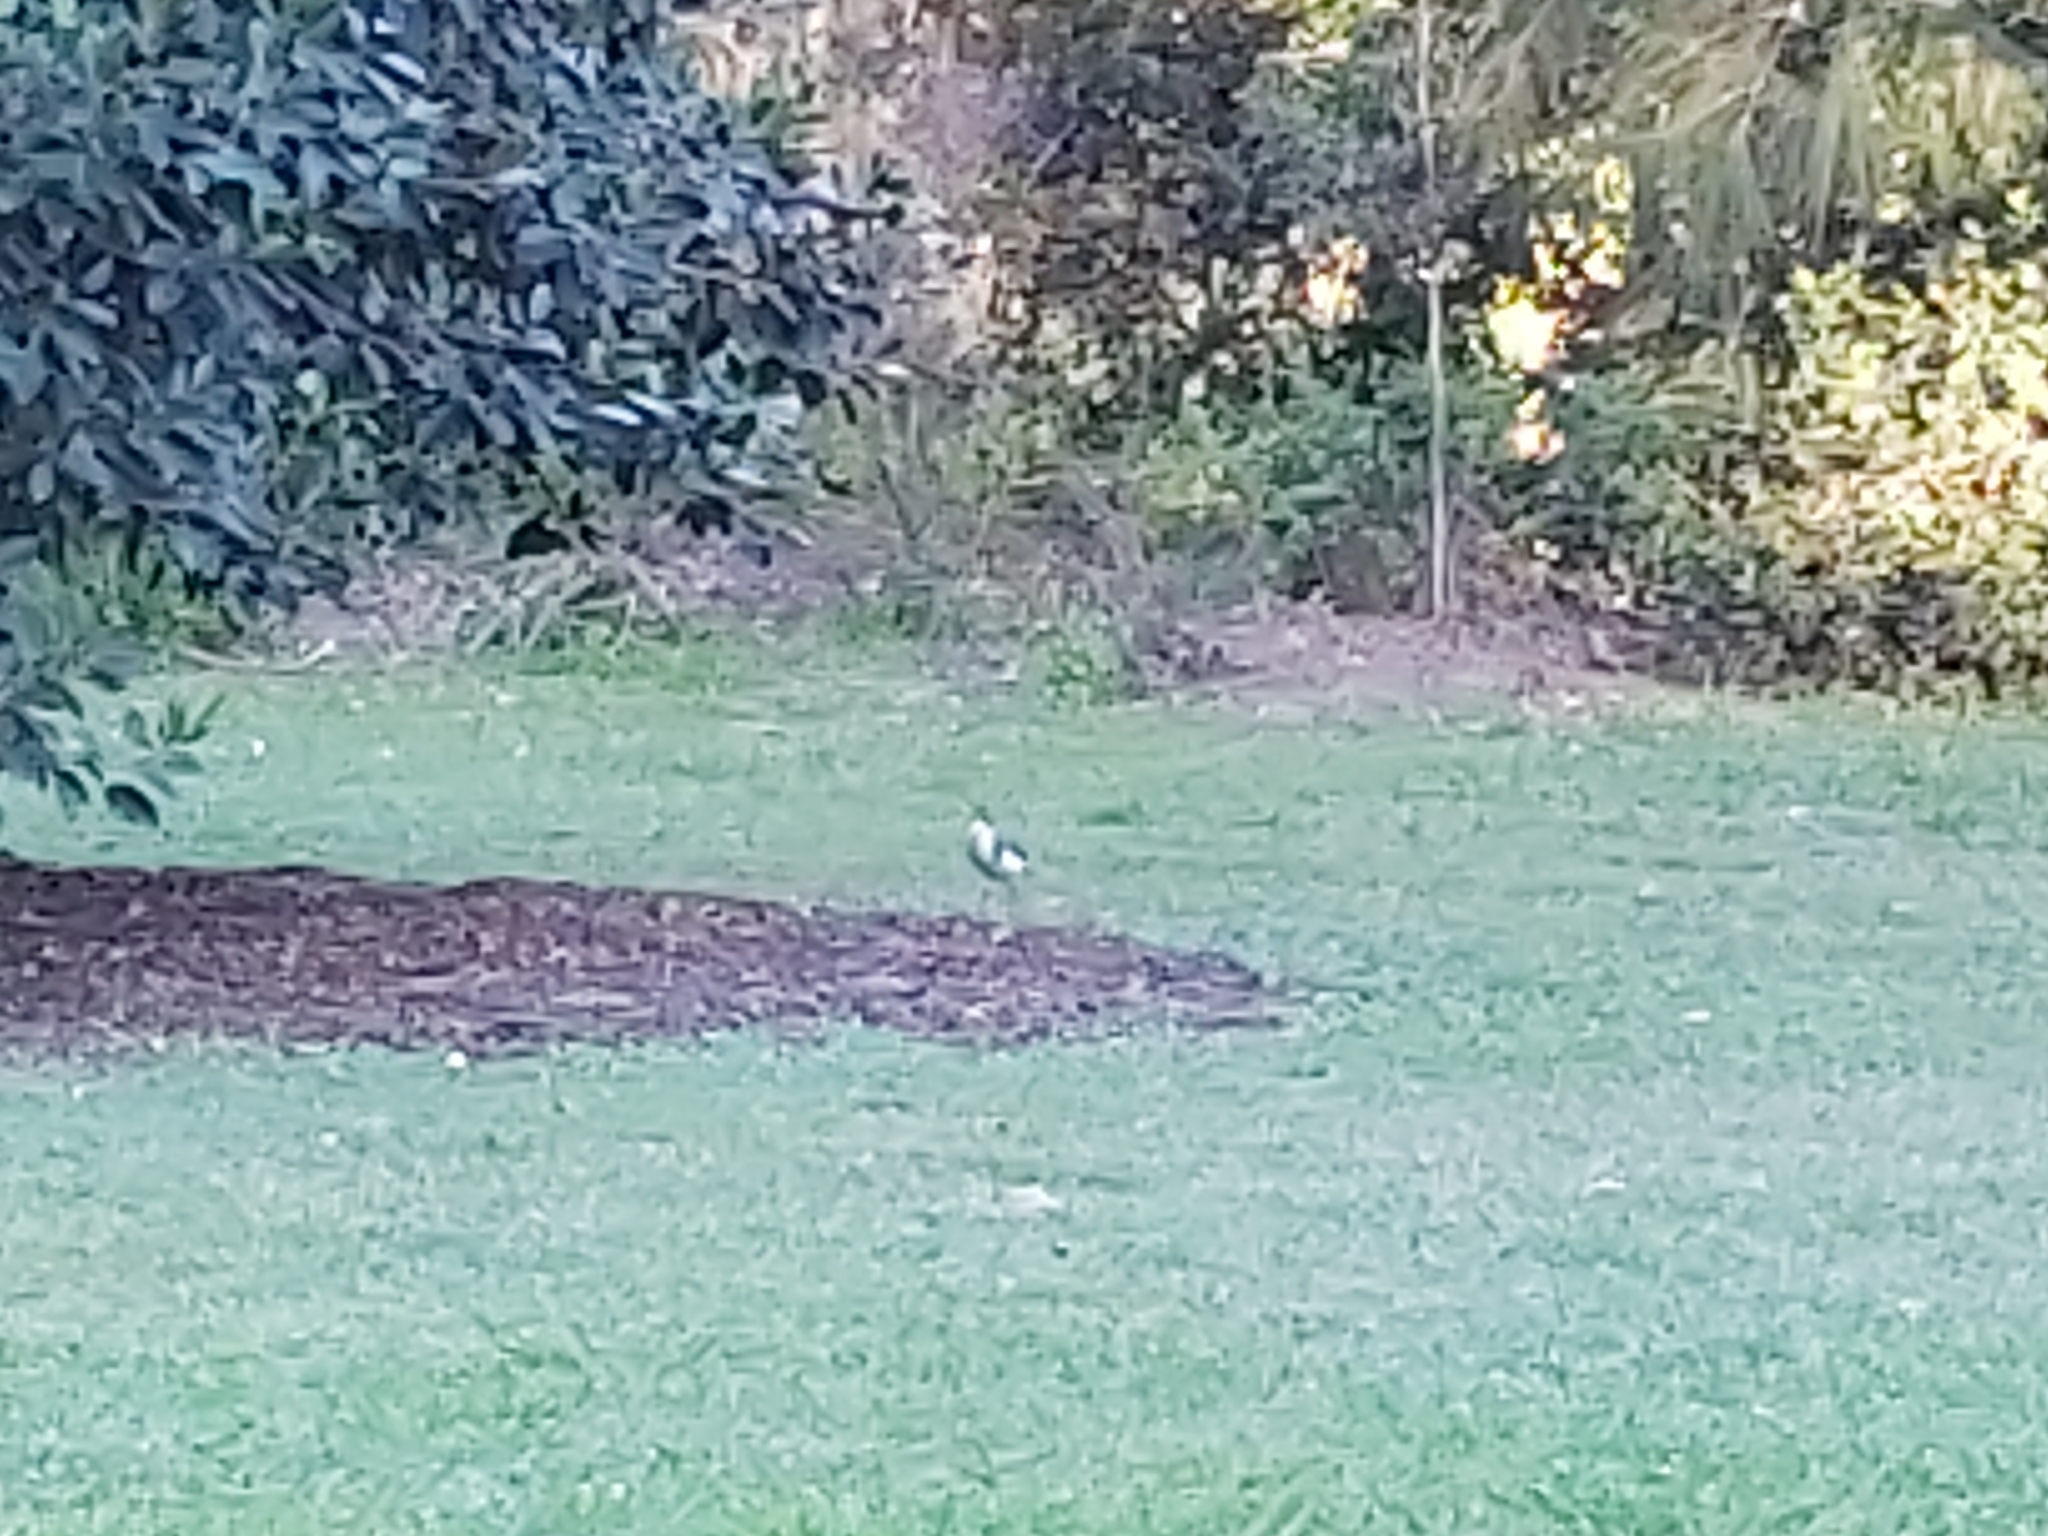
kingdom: Animalia
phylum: Chordata
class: Aves
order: Charadriiformes
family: Charadriidae
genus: Vanellus
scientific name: Vanellus miles
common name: Masked lapwing
